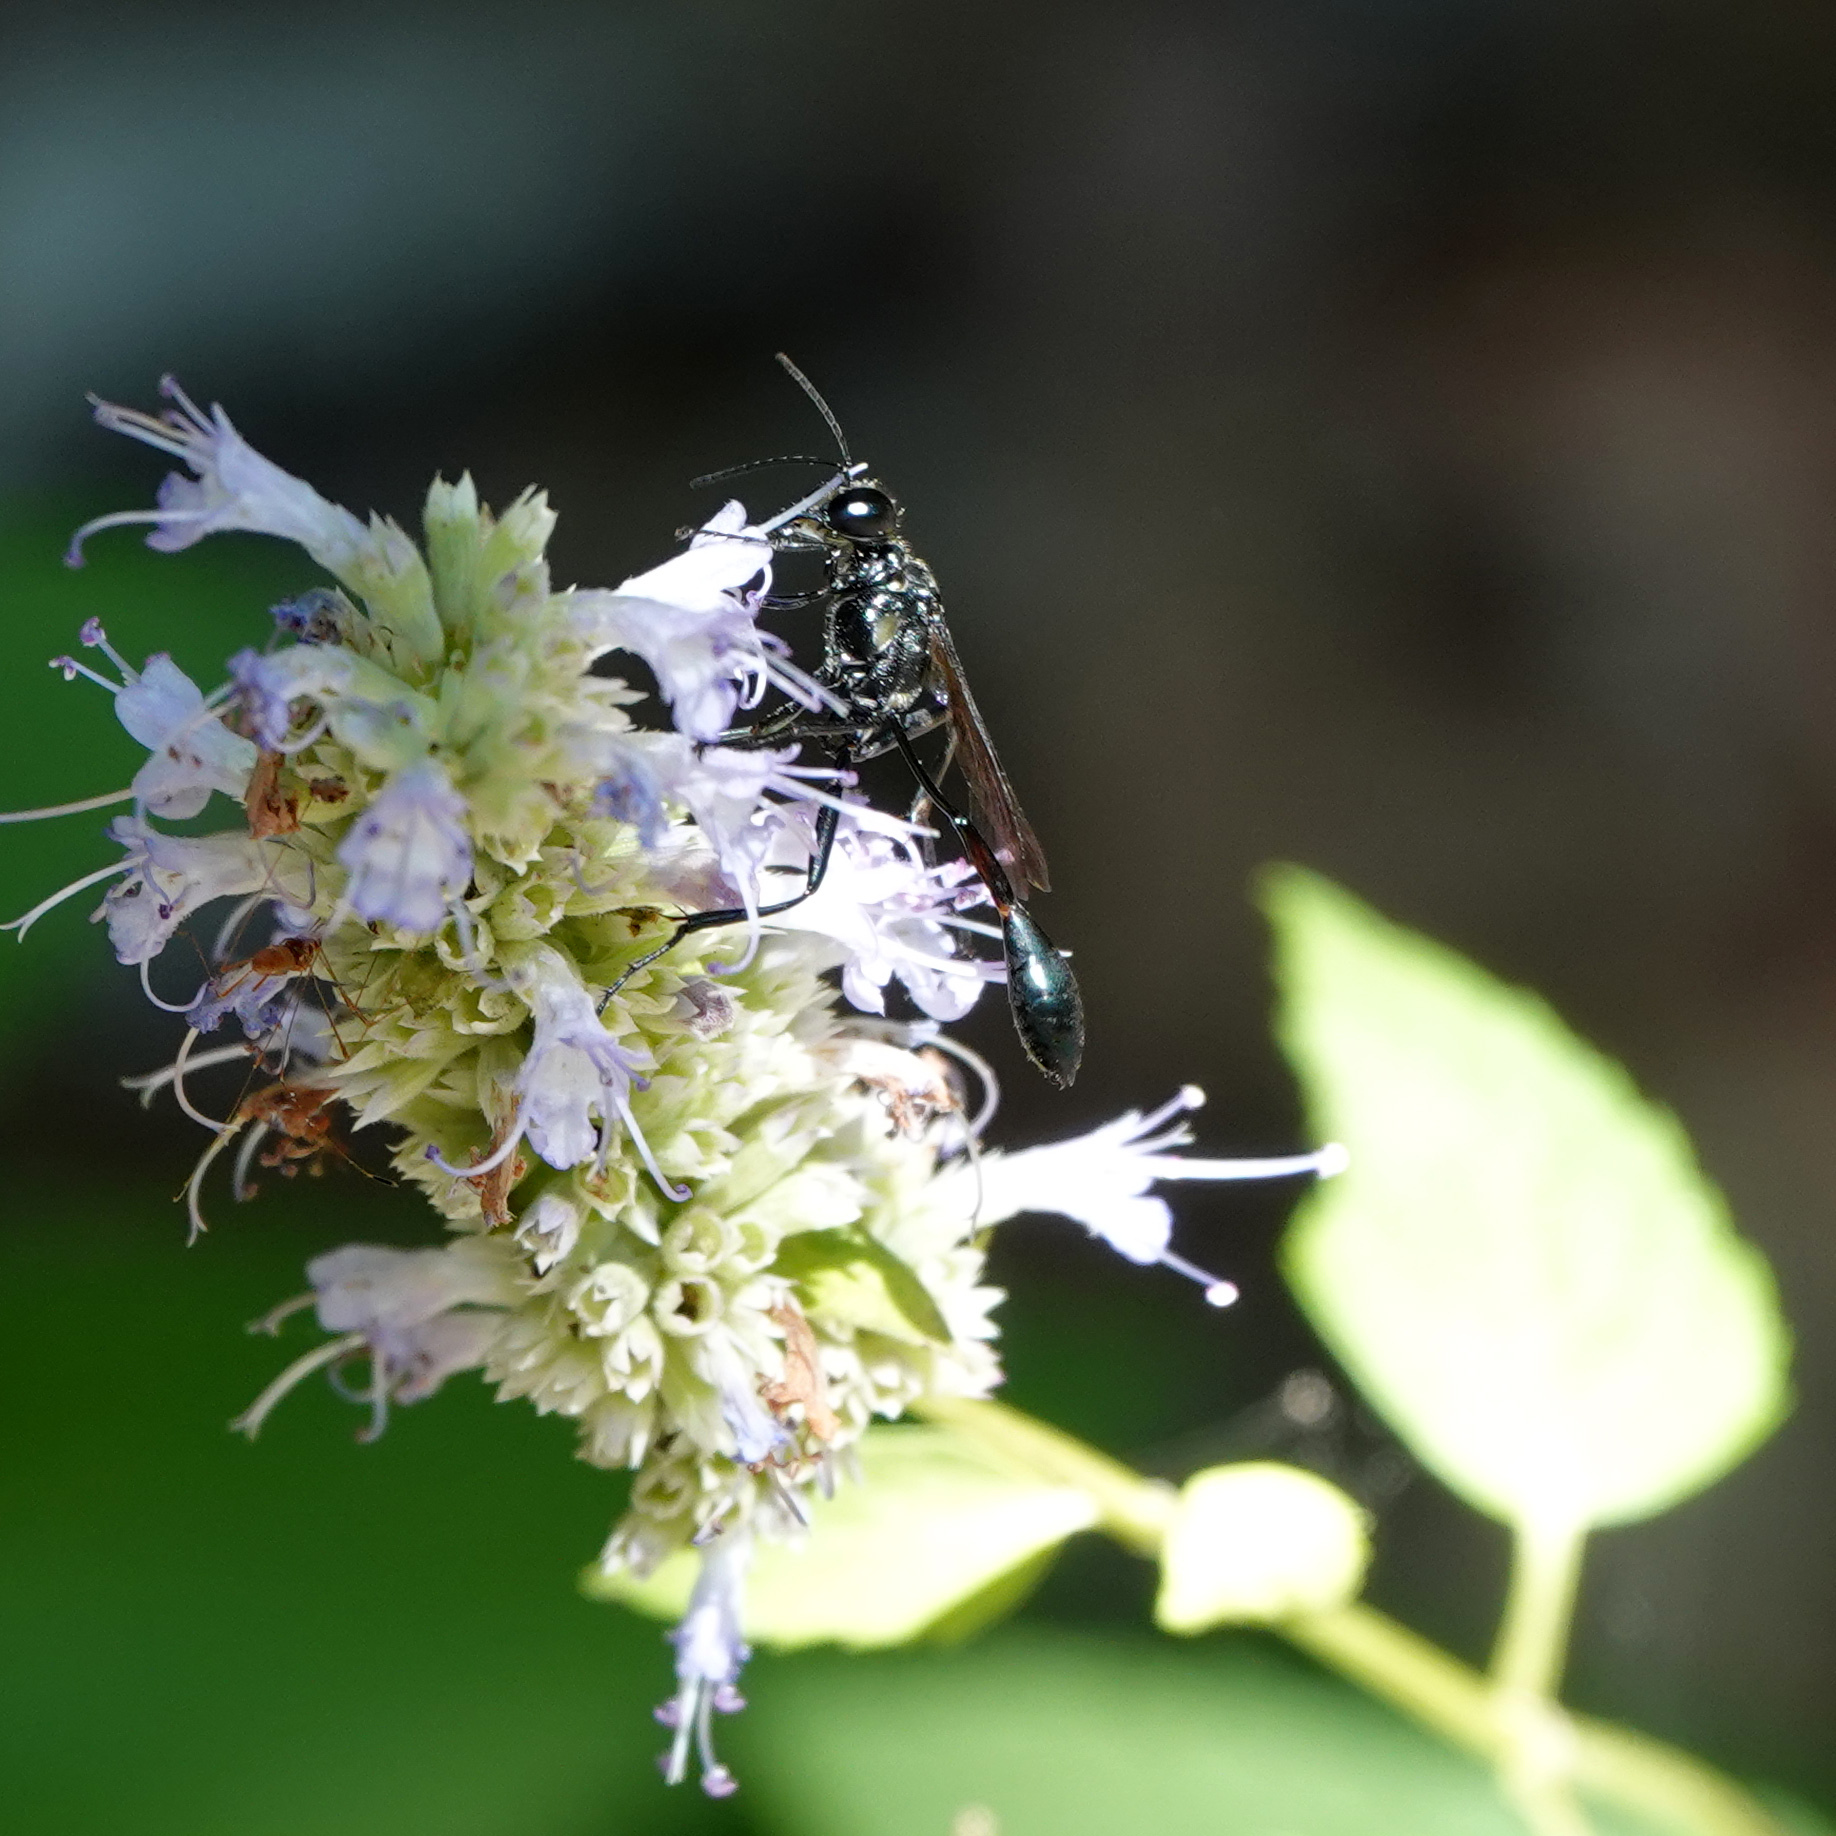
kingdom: Animalia
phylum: Arthropoda
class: Insecta
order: Hymenoptera
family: Sphecidae
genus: Eremnophila
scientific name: Eremnophila aureonotata
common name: Gold-marked thread-waisted wasp
